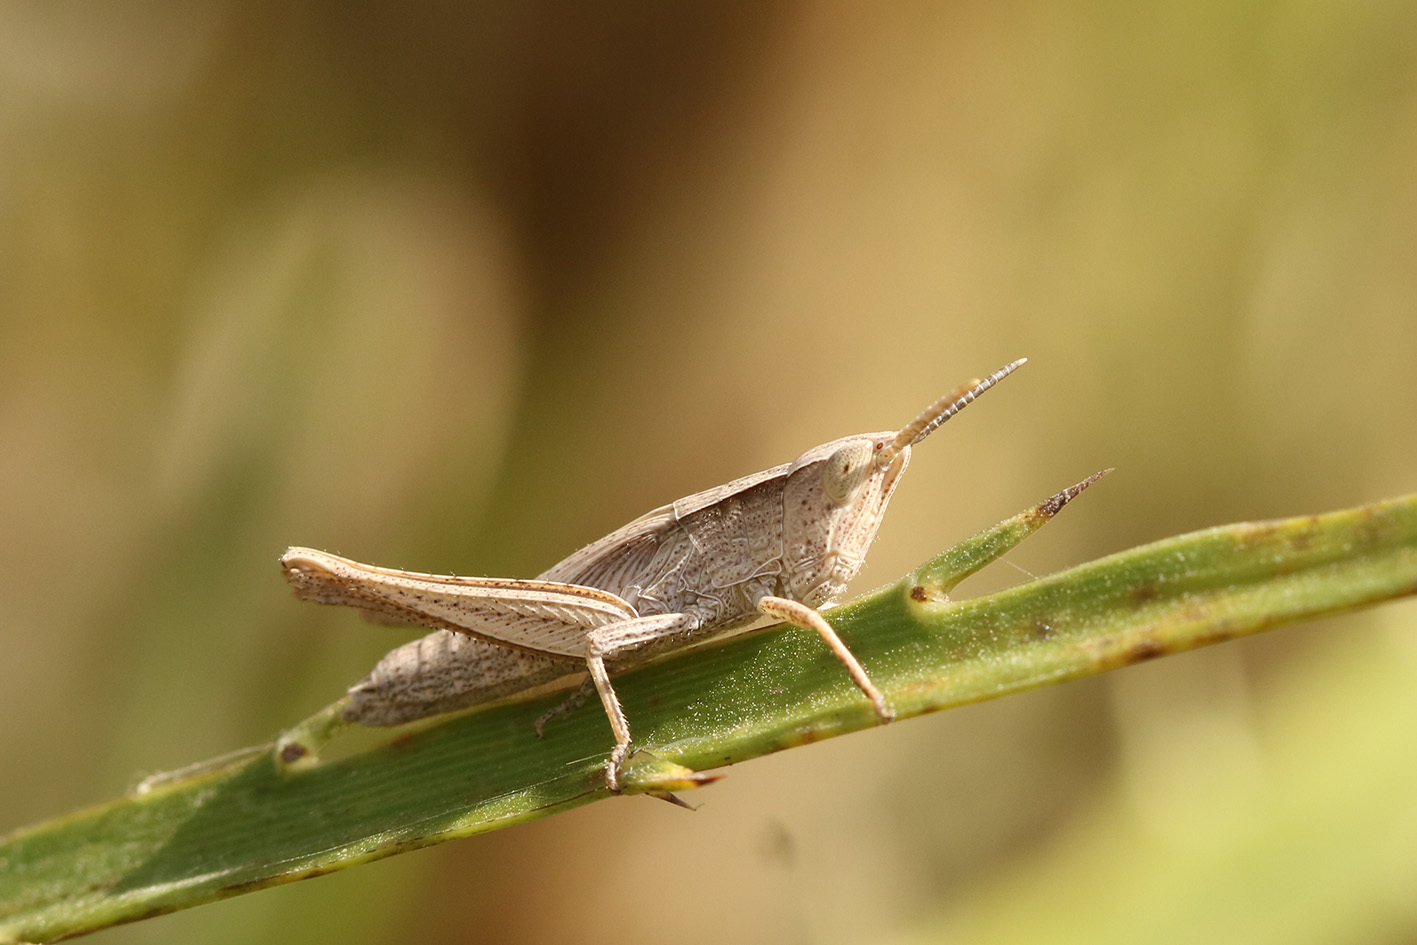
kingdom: Animalia
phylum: Arthropoda
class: Insecta
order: Orthoptera
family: Acrididae
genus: Laplatacris
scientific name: Laplatacris dispar
